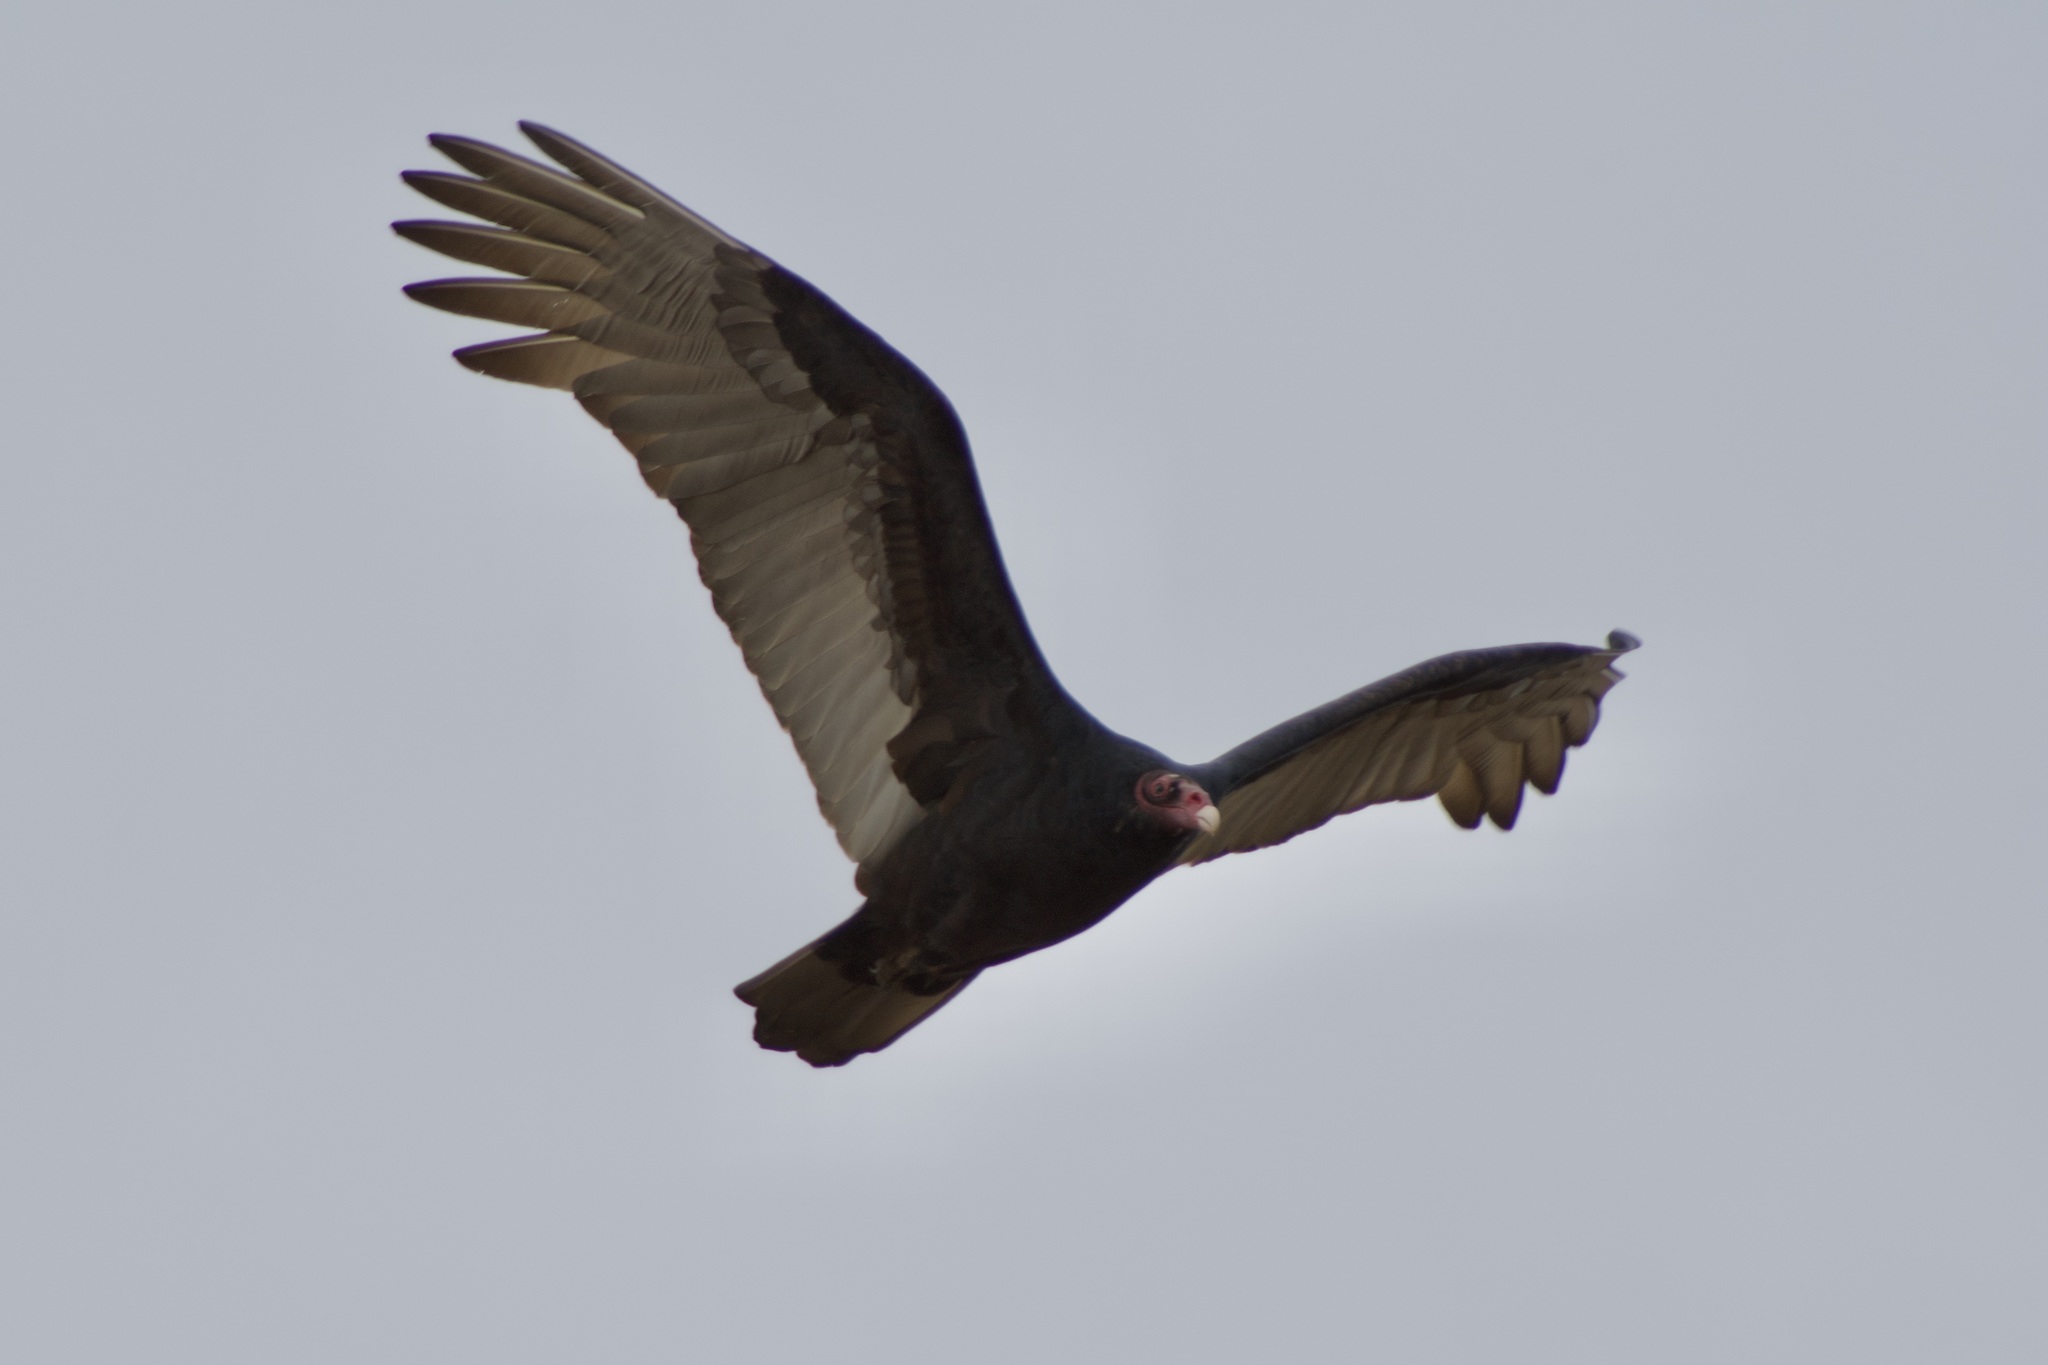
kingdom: Animalia
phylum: Chordata
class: Aves
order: Accipitriformes
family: Cathartidae
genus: Cathartes
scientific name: Cathartes aura
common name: Turkey vulture
